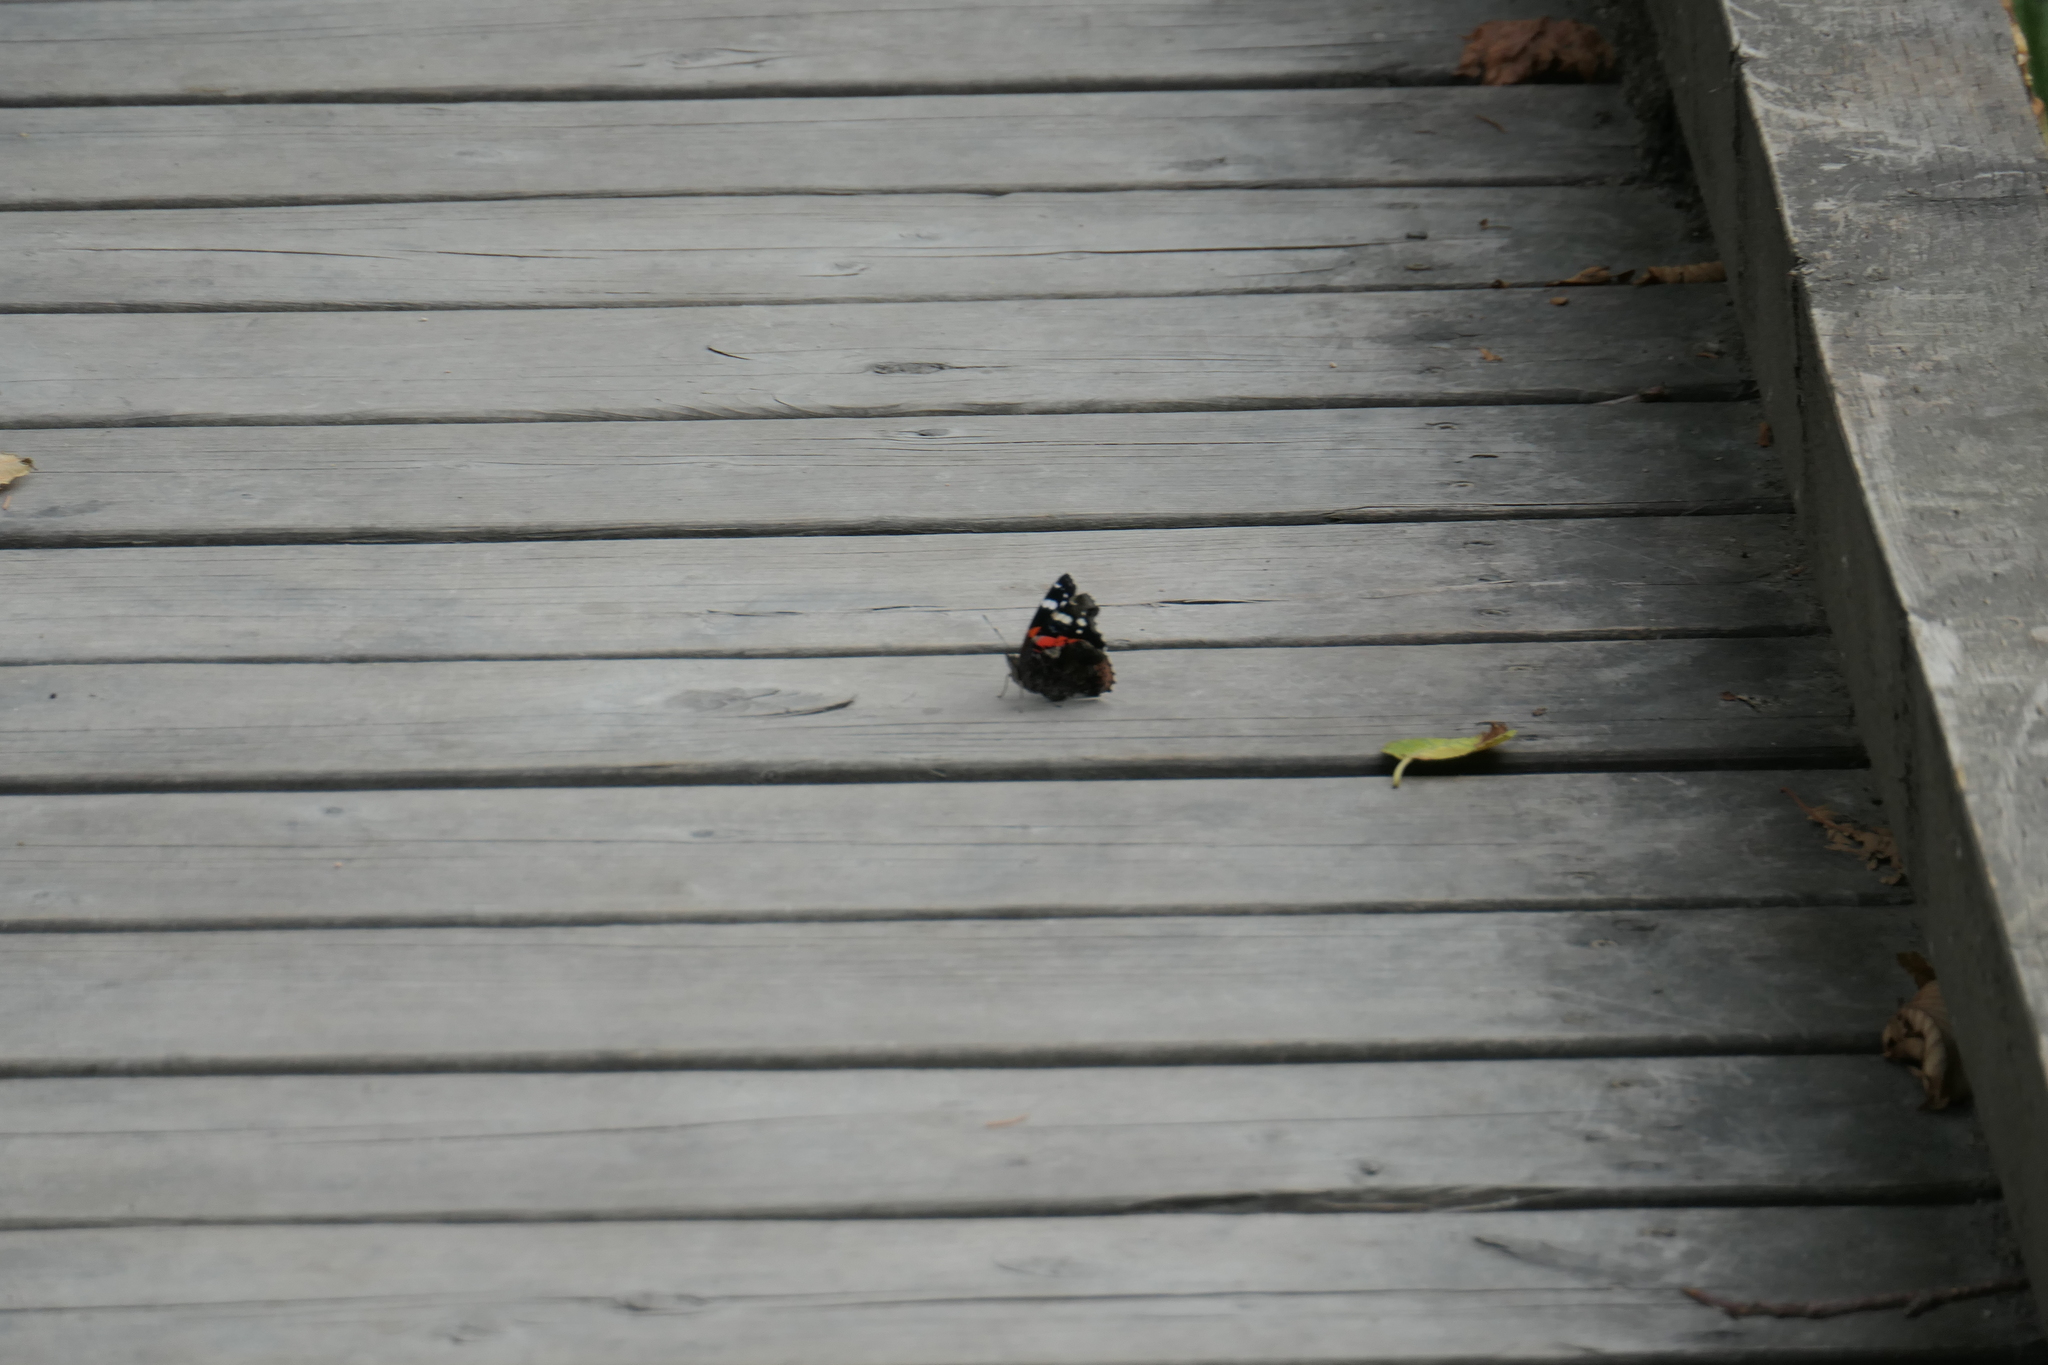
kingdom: Animalia
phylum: Arthropoda
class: Insecta
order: Lepidoptera
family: Nymphalidae
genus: Vanessa
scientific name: Vanessa atalanta
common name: Red admiral
